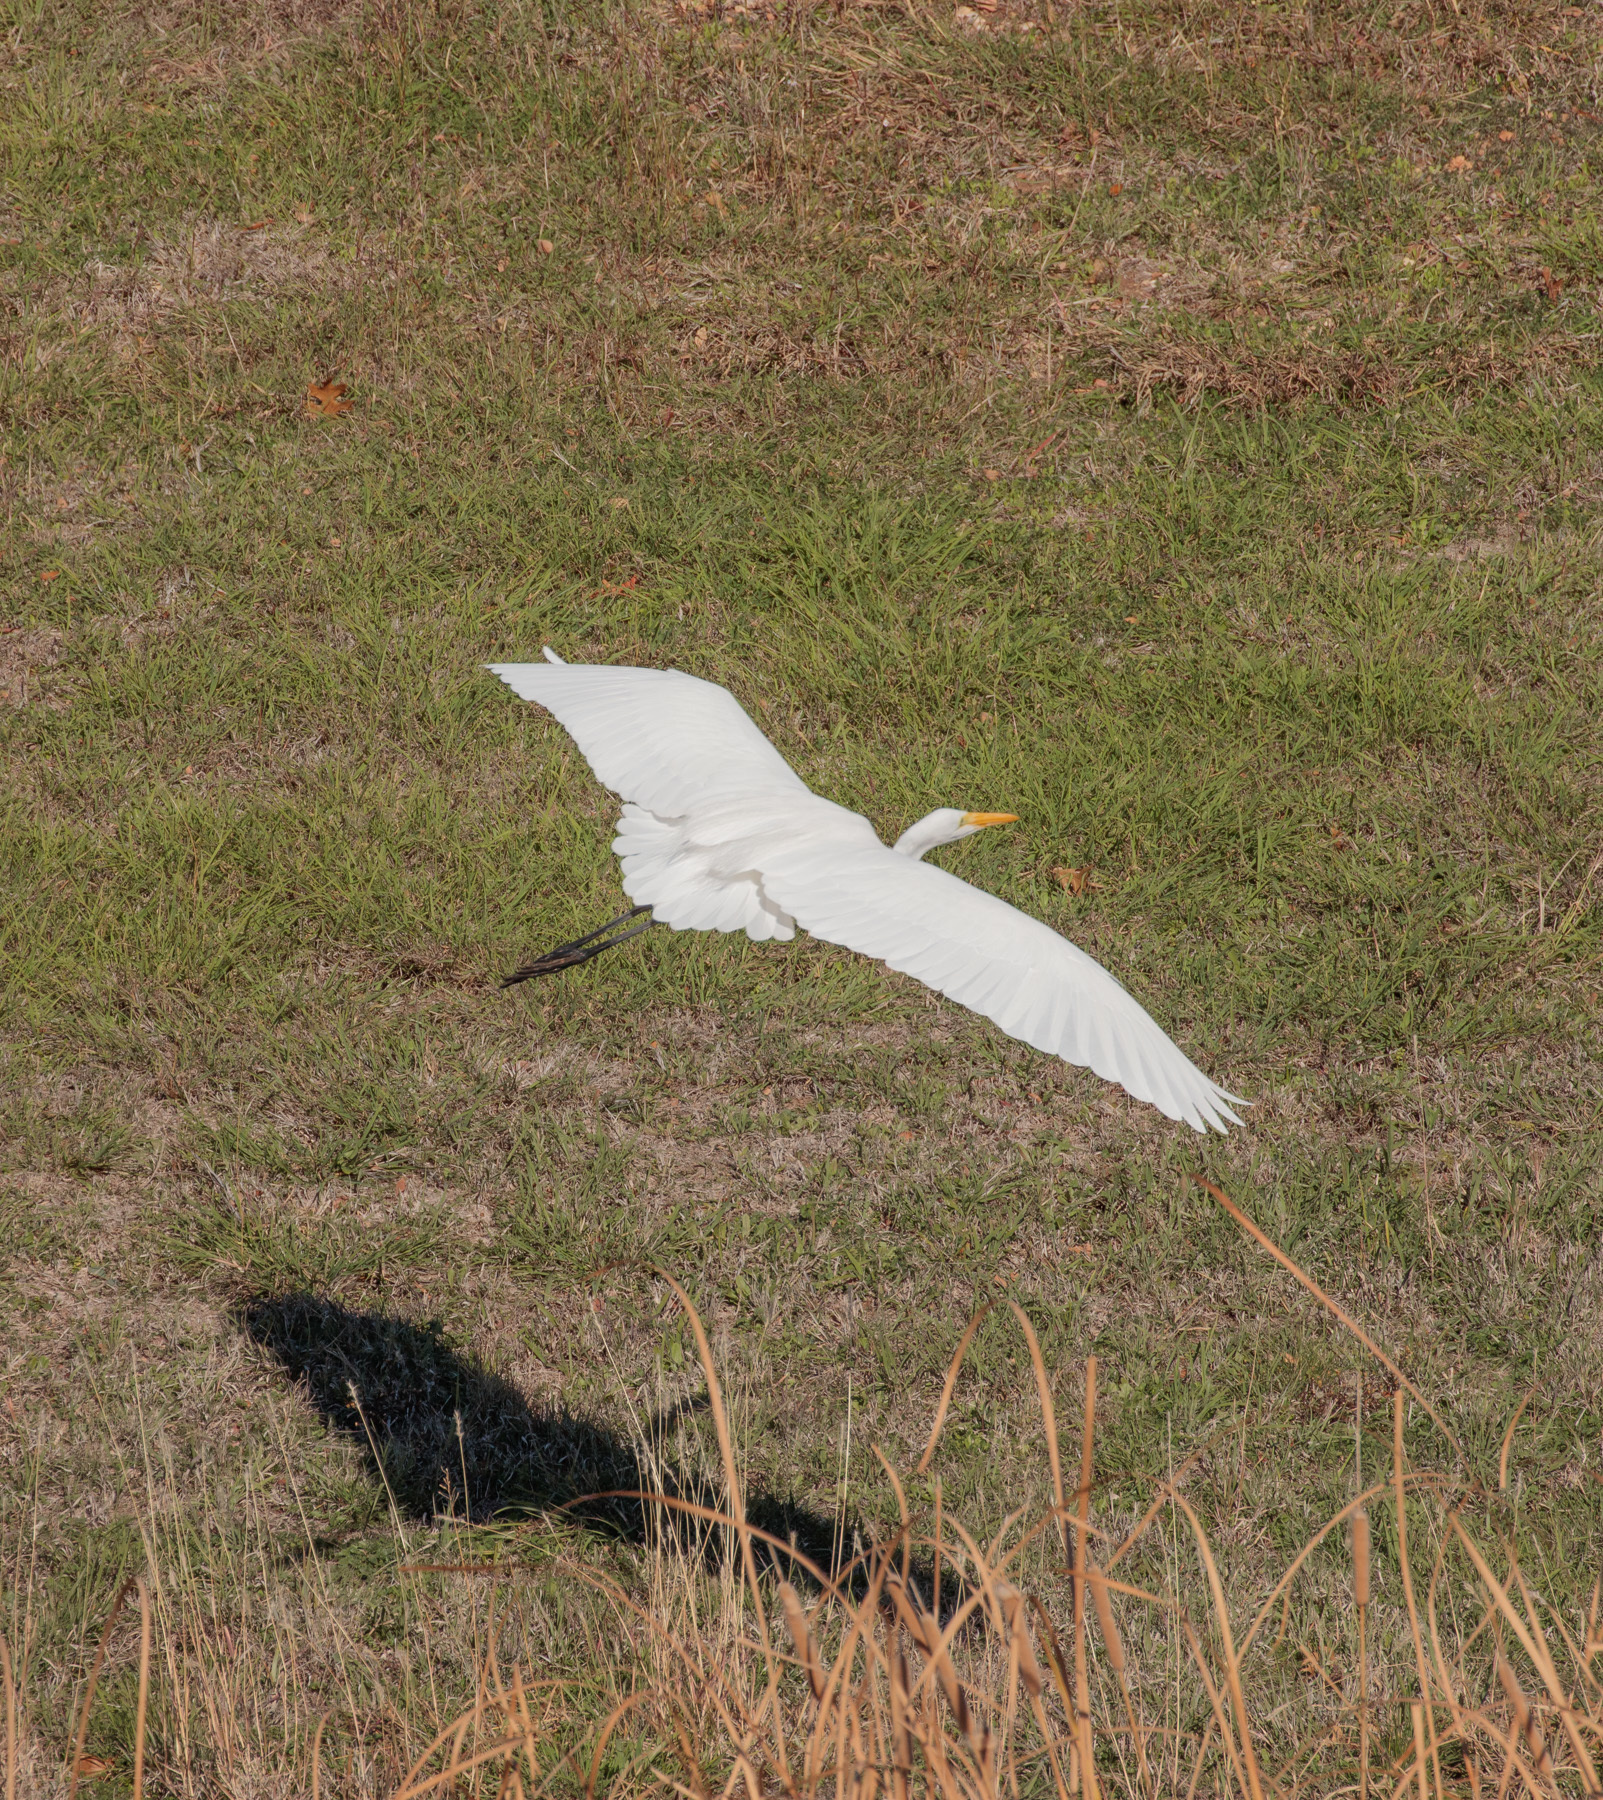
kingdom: Animalia
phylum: Chordata
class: Aves
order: Pelecaniformes
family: Ardeidae
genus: Ardea
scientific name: Ardea alba
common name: Great egret
